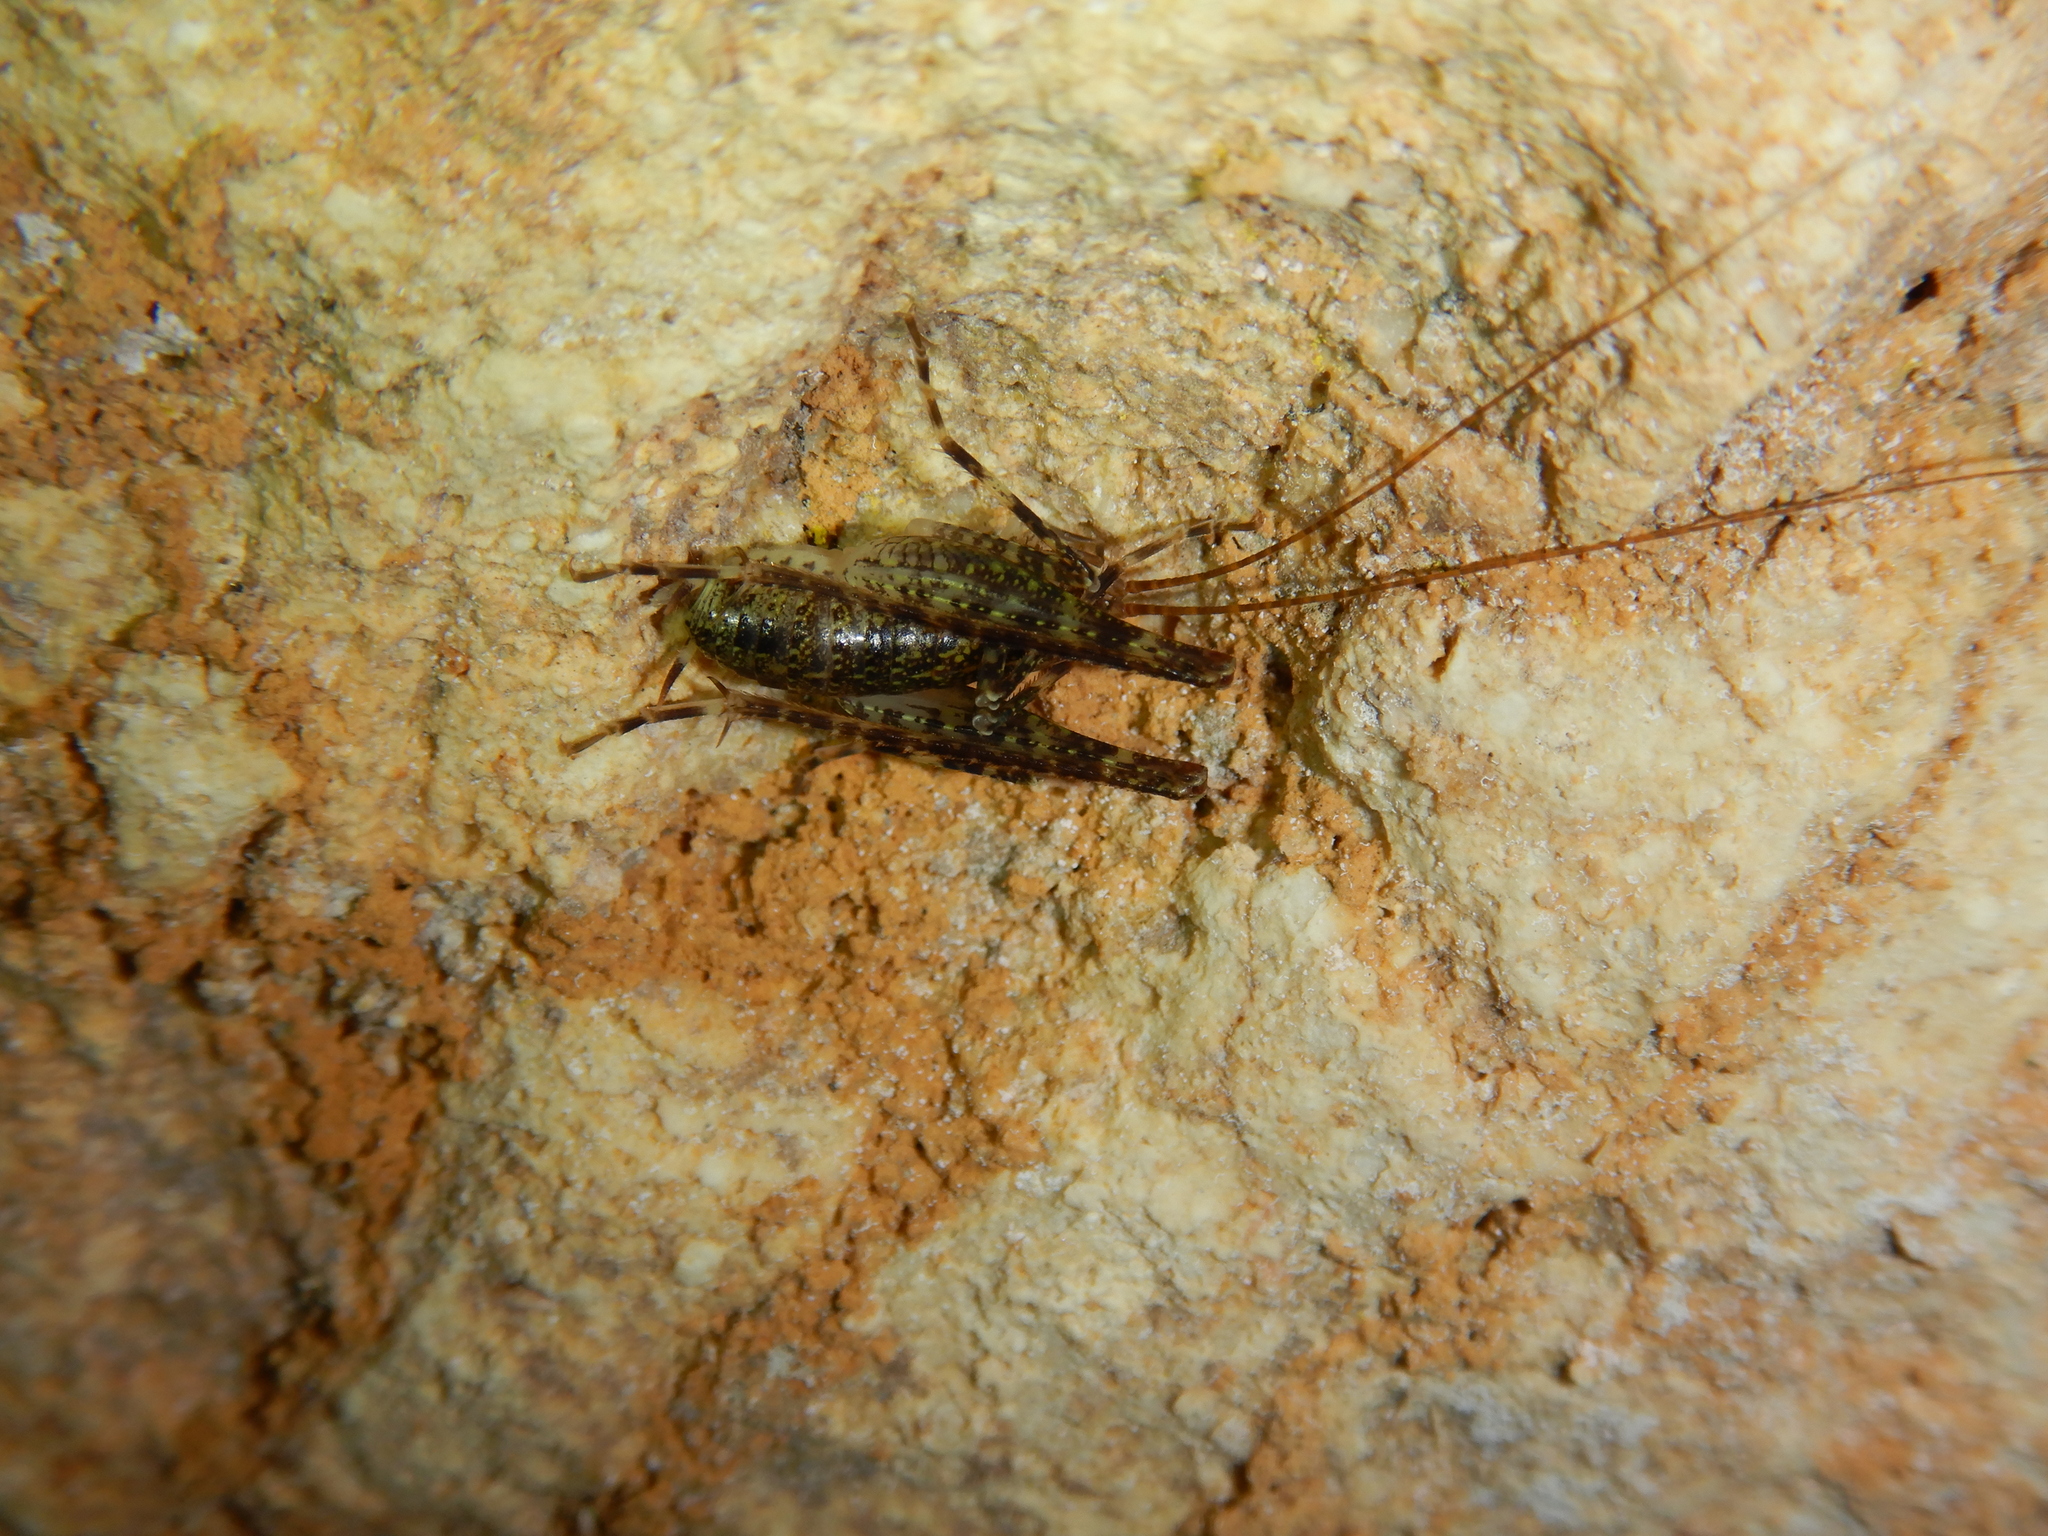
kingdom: Animalia
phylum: Arthropoda
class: Insecta
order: Orthoptera
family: Rhaphidophoridae
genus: Troglophilus
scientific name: Troglophilus neglectus
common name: Neglected cave-cricket
